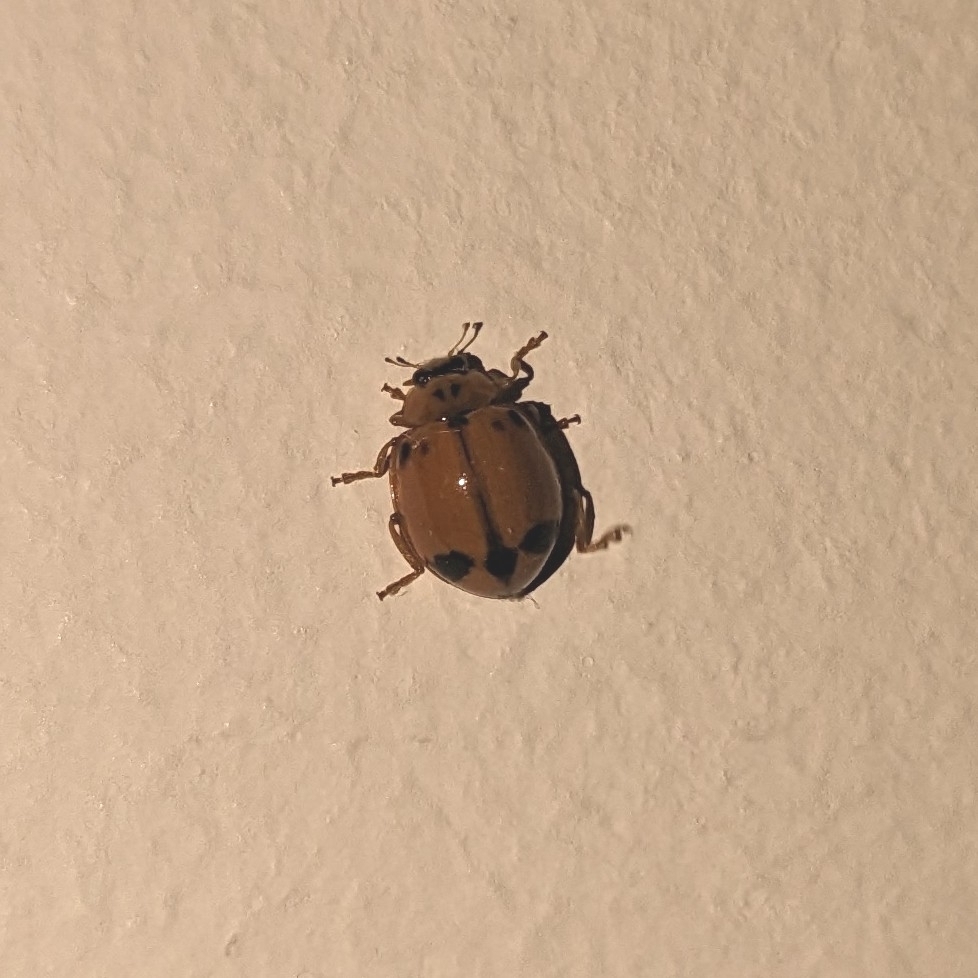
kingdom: Animalia
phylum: Arthropoda
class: Insecta
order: Coleoptera
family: Coccinellidae
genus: Harmonia
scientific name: Harmonia octomaculata
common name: Lady beetle
